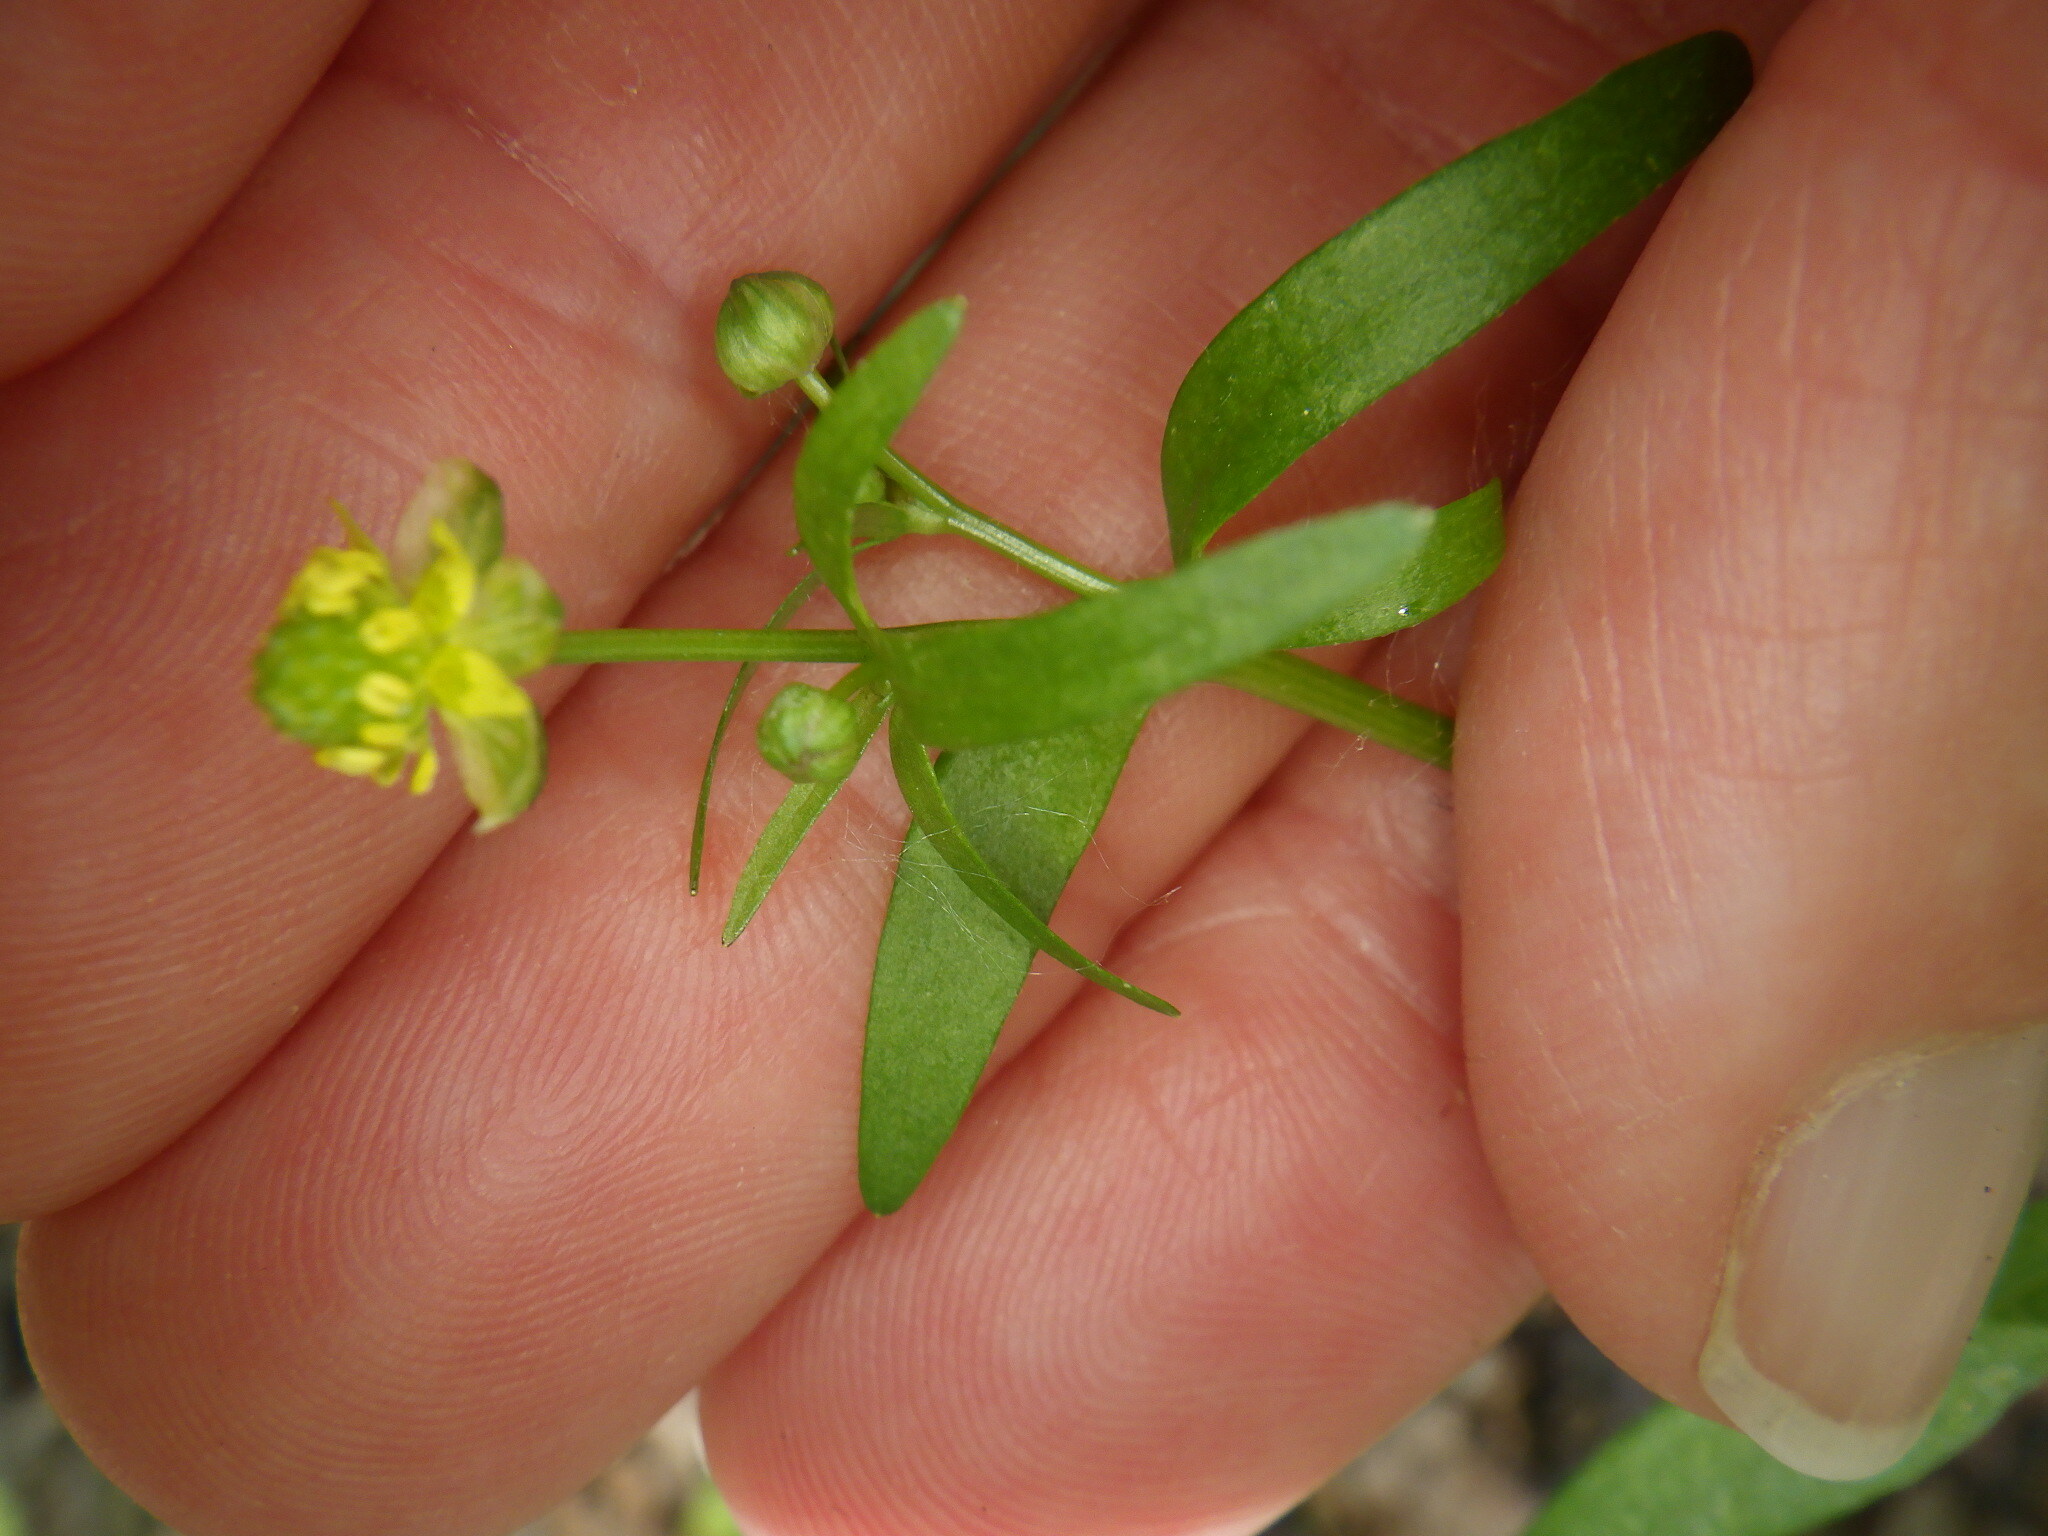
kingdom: Plantae
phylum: Tracheophyta
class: Magnoliopsida
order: Ranunculales
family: Ranunculaceae
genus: Ranunculus
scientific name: Ranunculus abortivus
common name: Early wood buttercup
